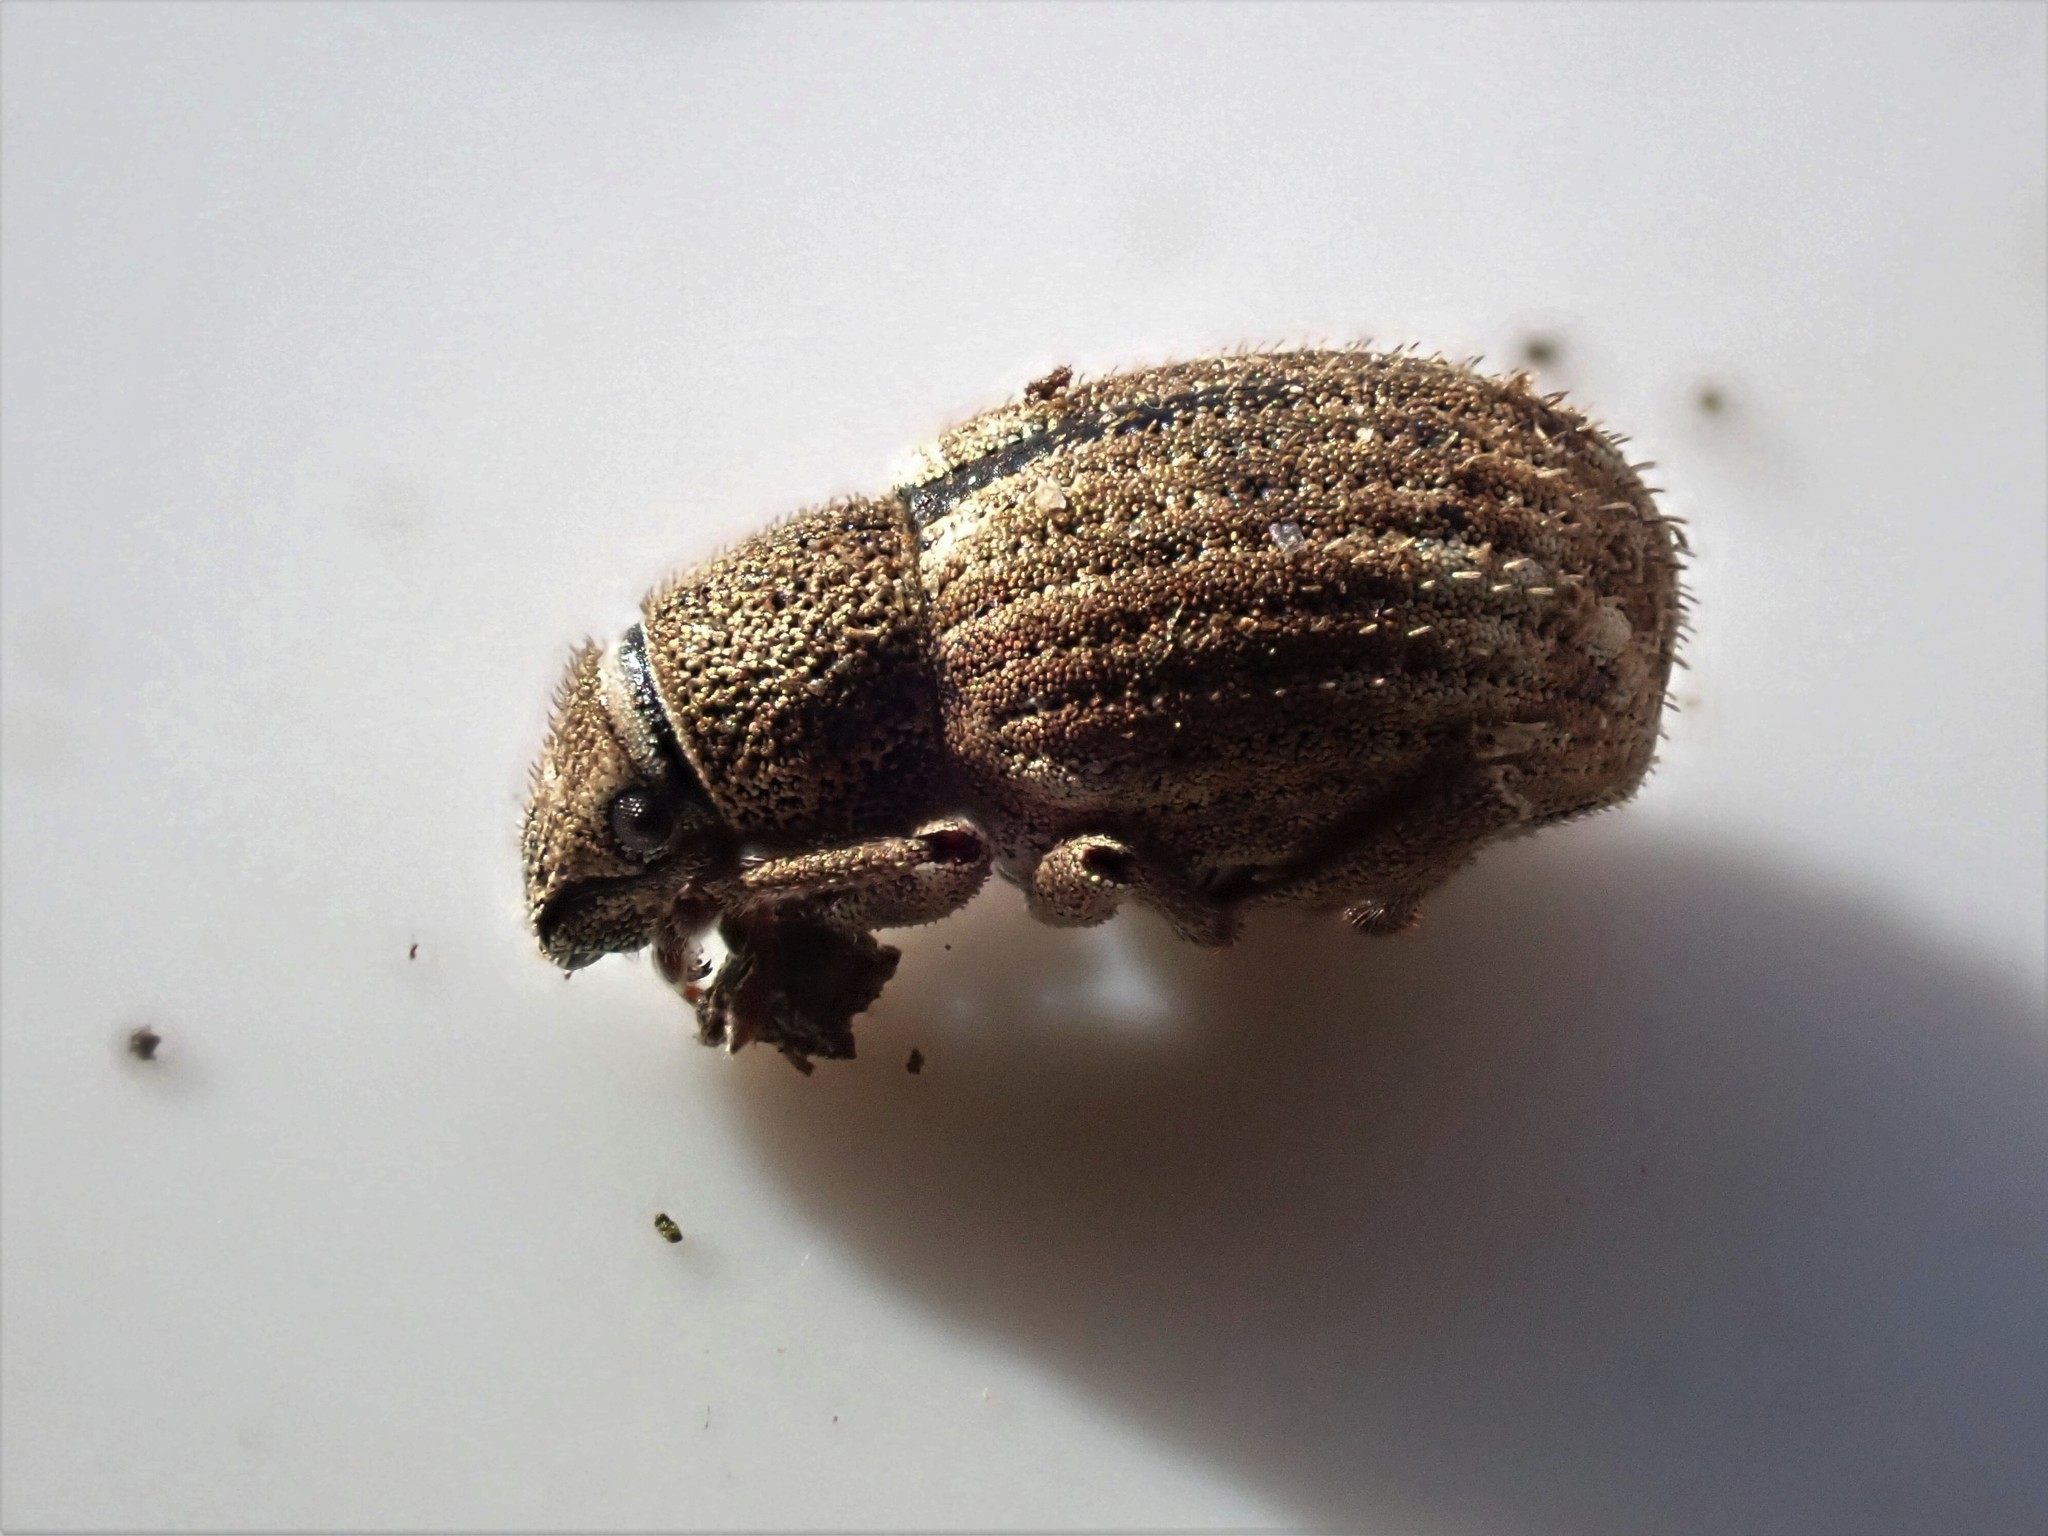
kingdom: Animalia
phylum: Arthropoda
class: Insecta
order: Coleoptera
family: Curculionidae
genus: Strophosoma
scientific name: Strophosoma melanogrammum
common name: Weevil
